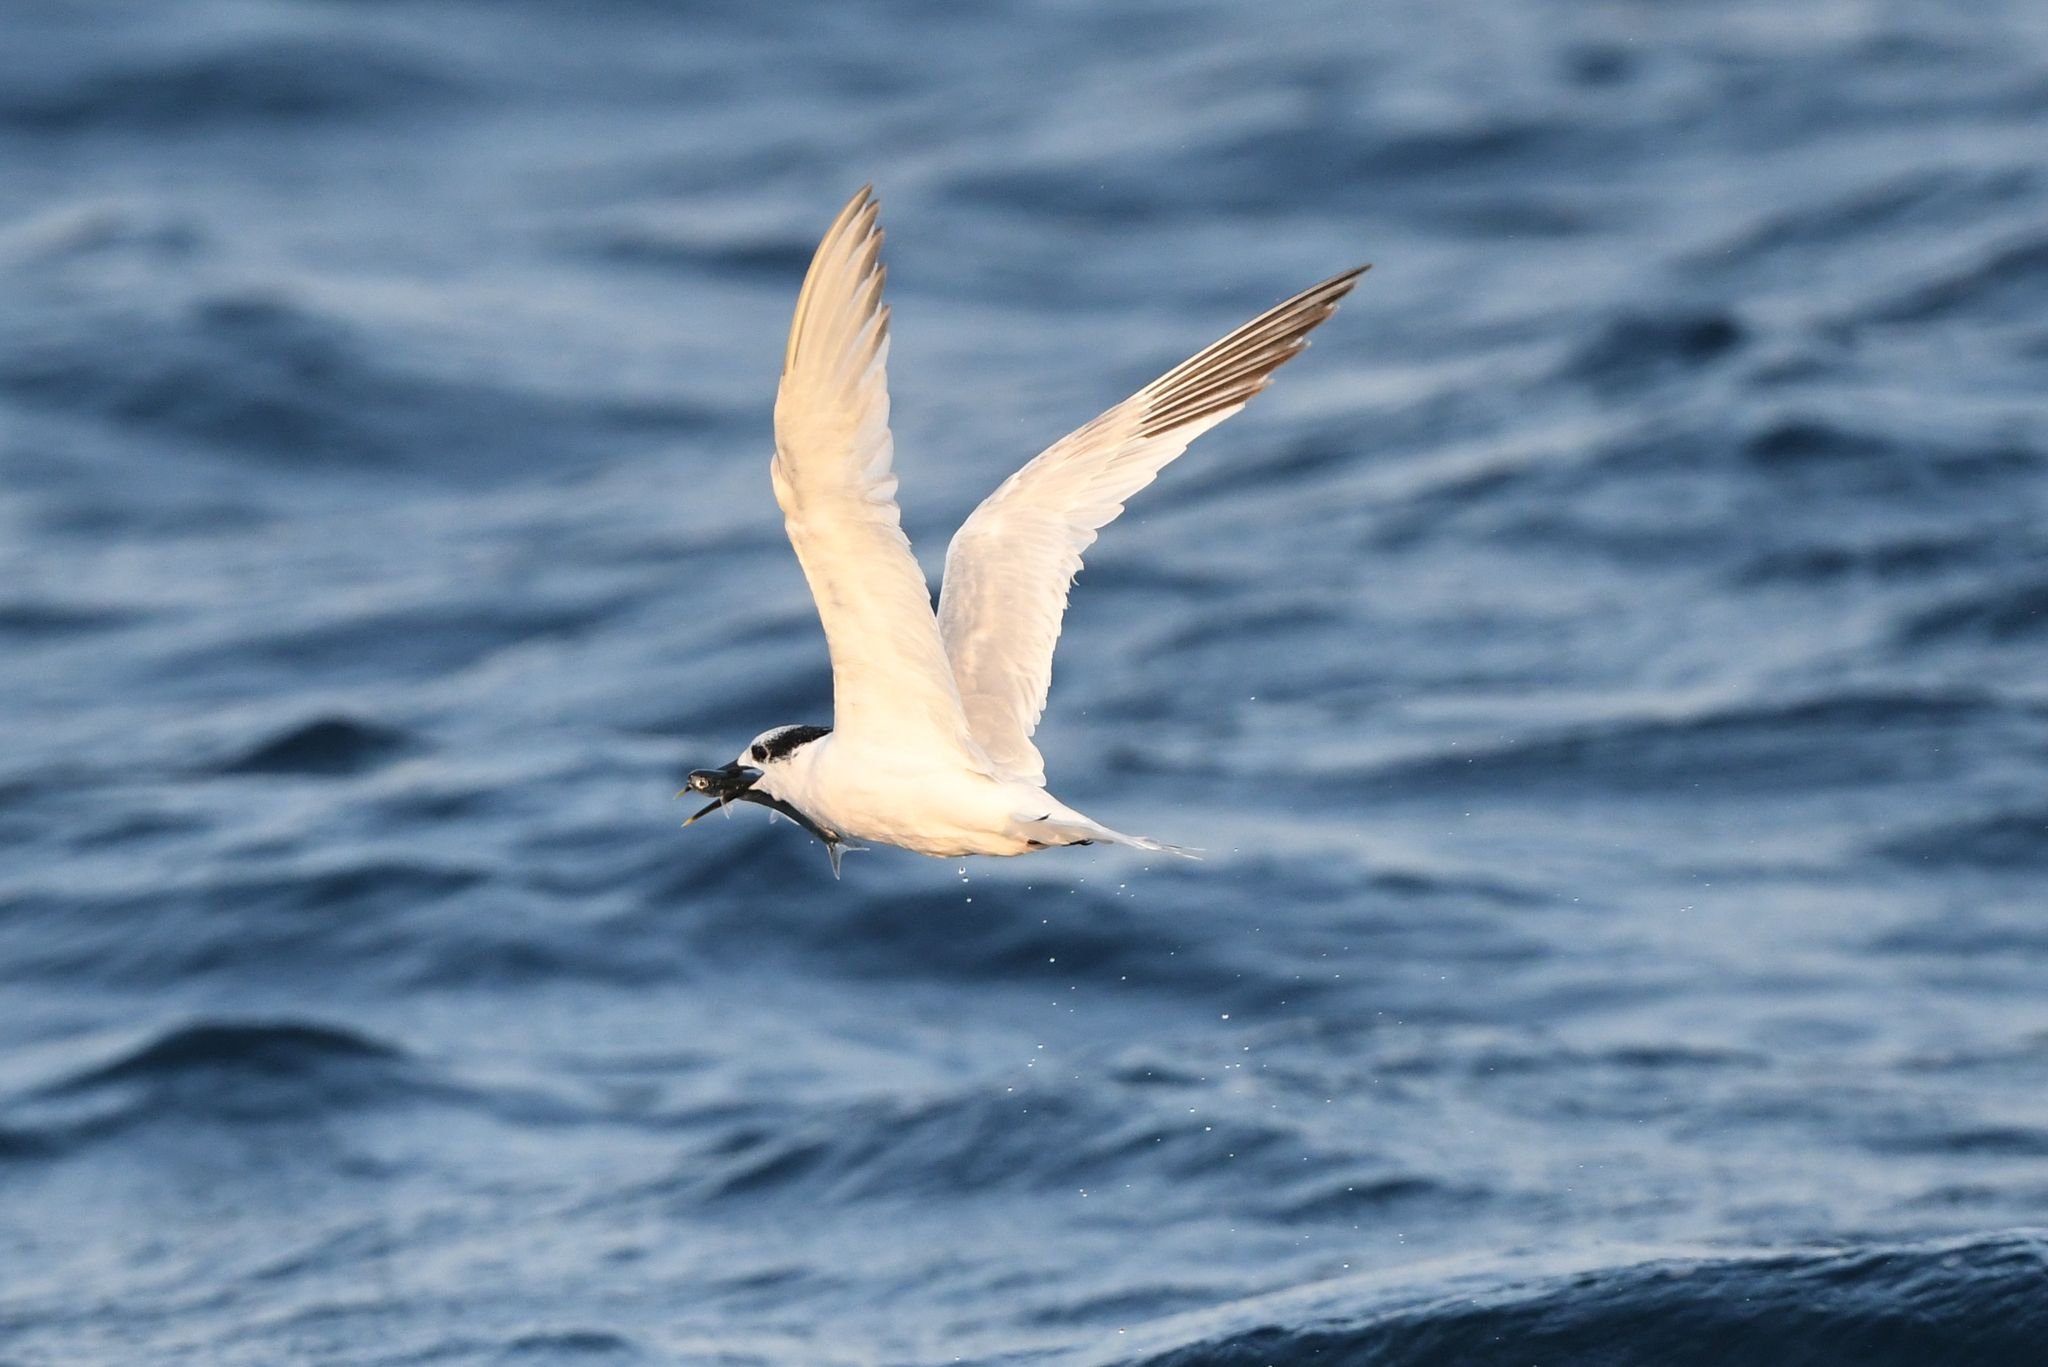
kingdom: Animalia
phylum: Chordata
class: Aves
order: Charadriiformes
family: Laridae
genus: Thalasseus
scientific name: Thalasseus sandvicensis
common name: Sandwich tern
